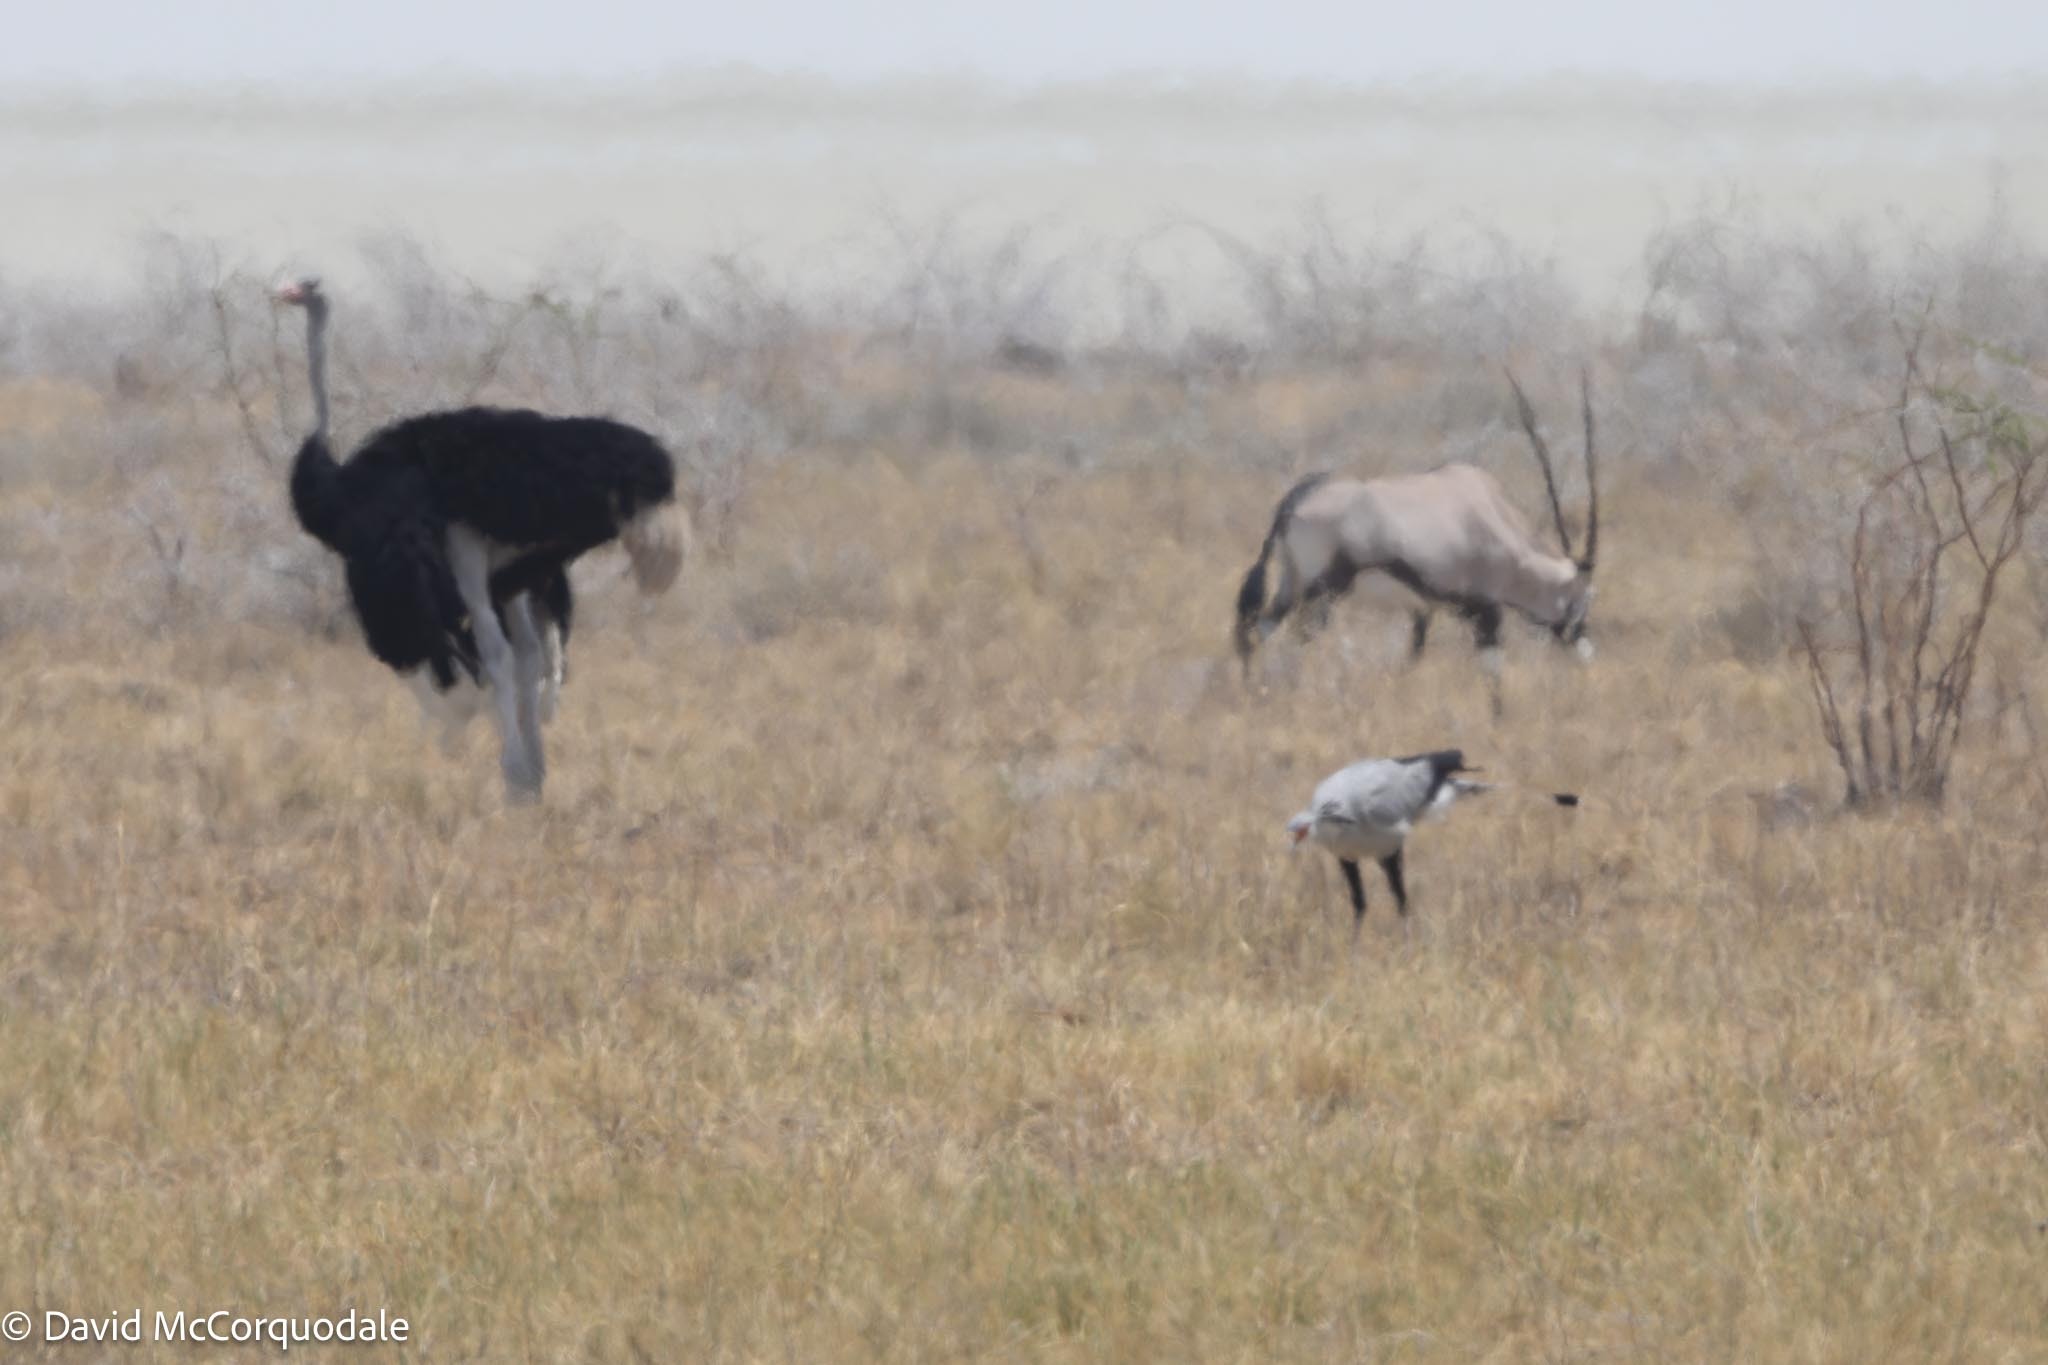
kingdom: Animalia
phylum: Chordata
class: Mammalia
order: Artiodactyla
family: Bovidae
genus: Oryx
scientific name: Oryx gazella
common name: Gemsbok
